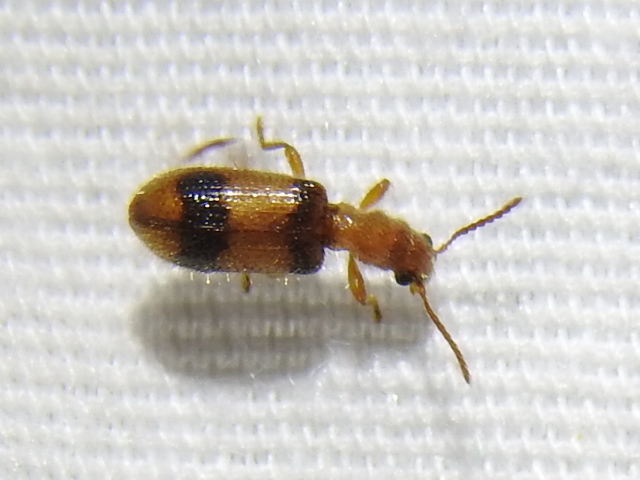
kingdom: Animalia
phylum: Arthropoda
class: Insecta
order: Coleoptera
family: Cleridae
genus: Cymatodera
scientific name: Cymatodera puncticollis
